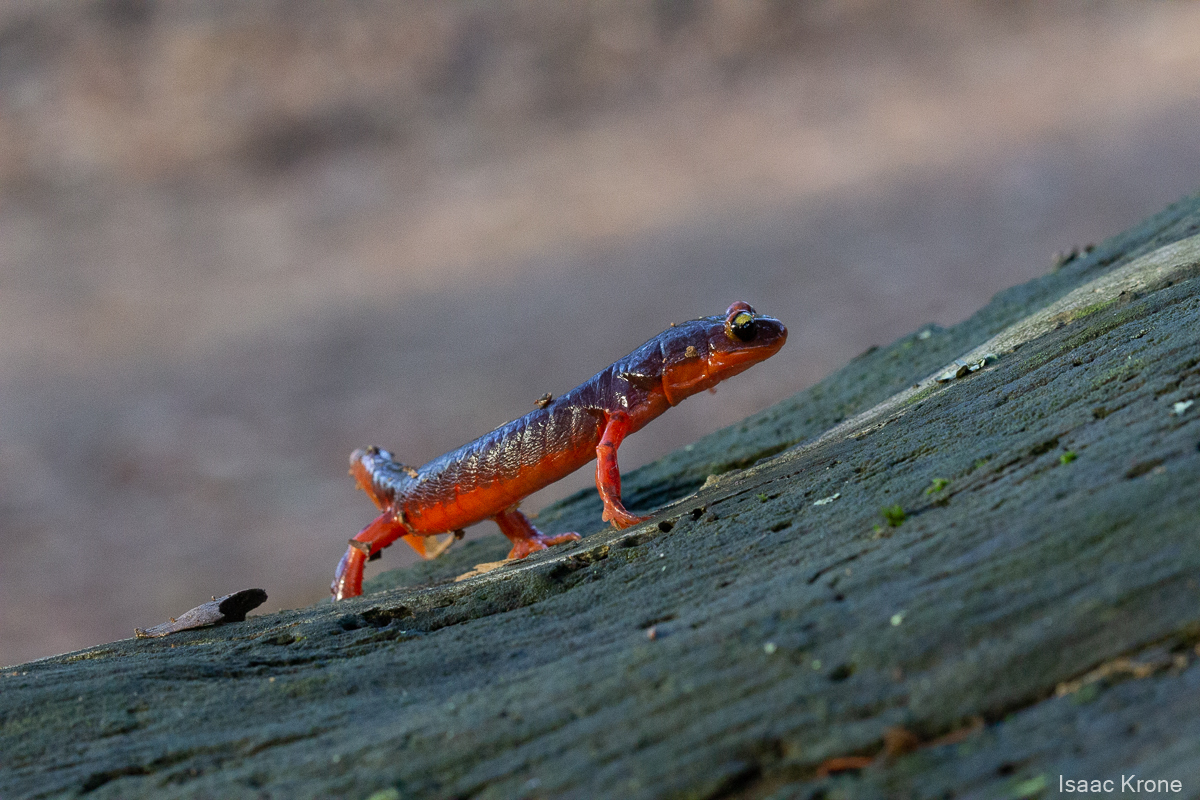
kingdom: Animalia
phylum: Chordata
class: Amphibia
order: Caudata
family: Plethodontidae
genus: Ensatina
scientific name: Ensatina eschscholtzii
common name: Ensatina
